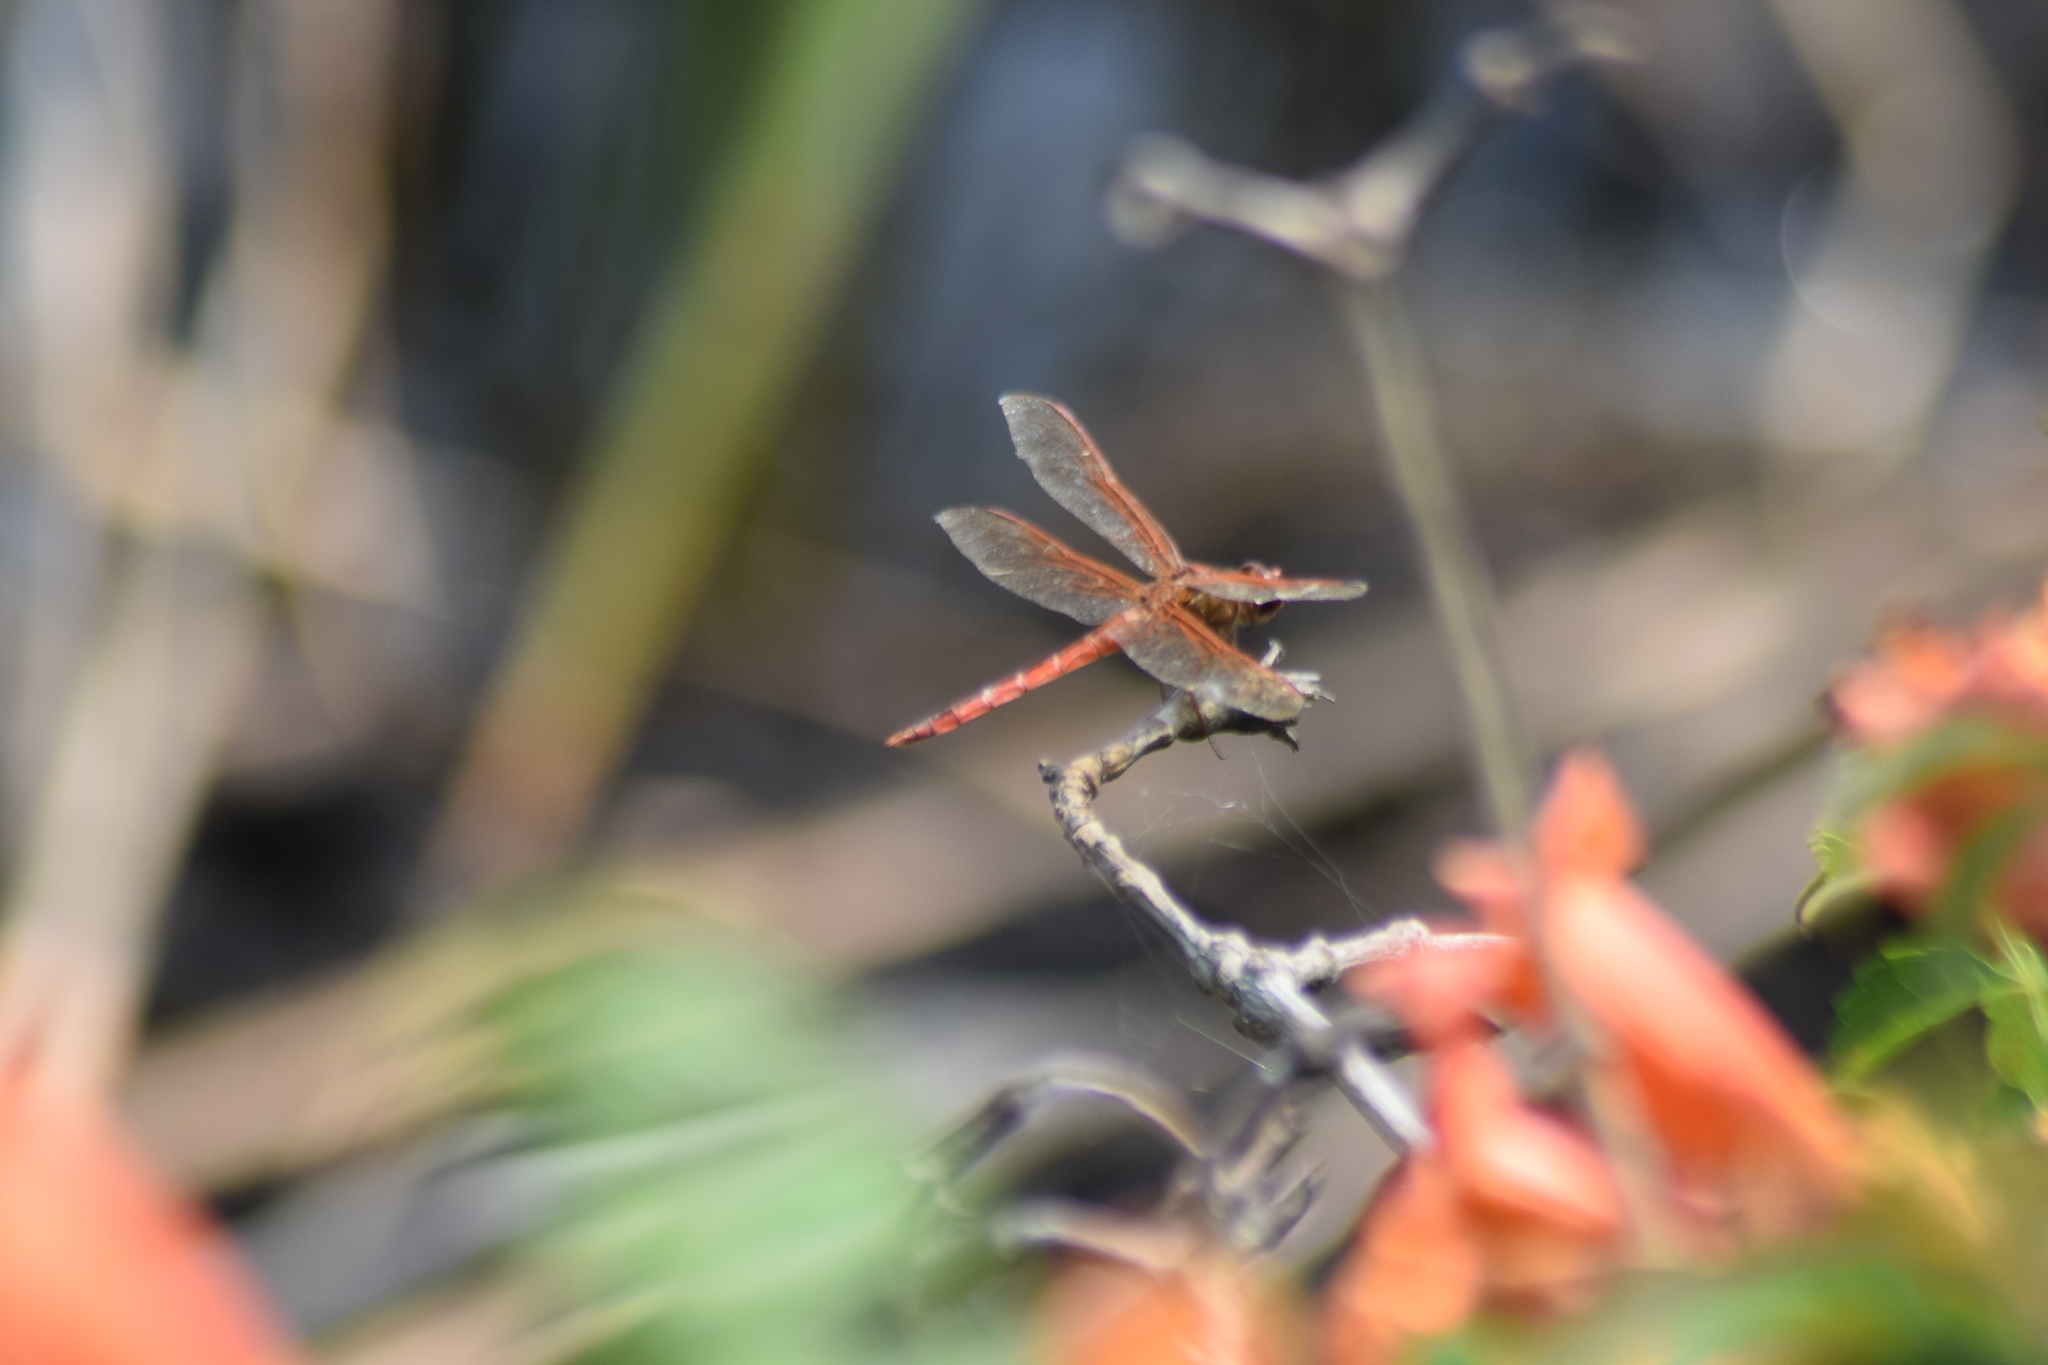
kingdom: Animalia
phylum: Arthropoda
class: Insecta
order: Odonata
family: Libellulidae
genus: Libellula
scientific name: Libellula needhami
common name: Needham's skimmer
